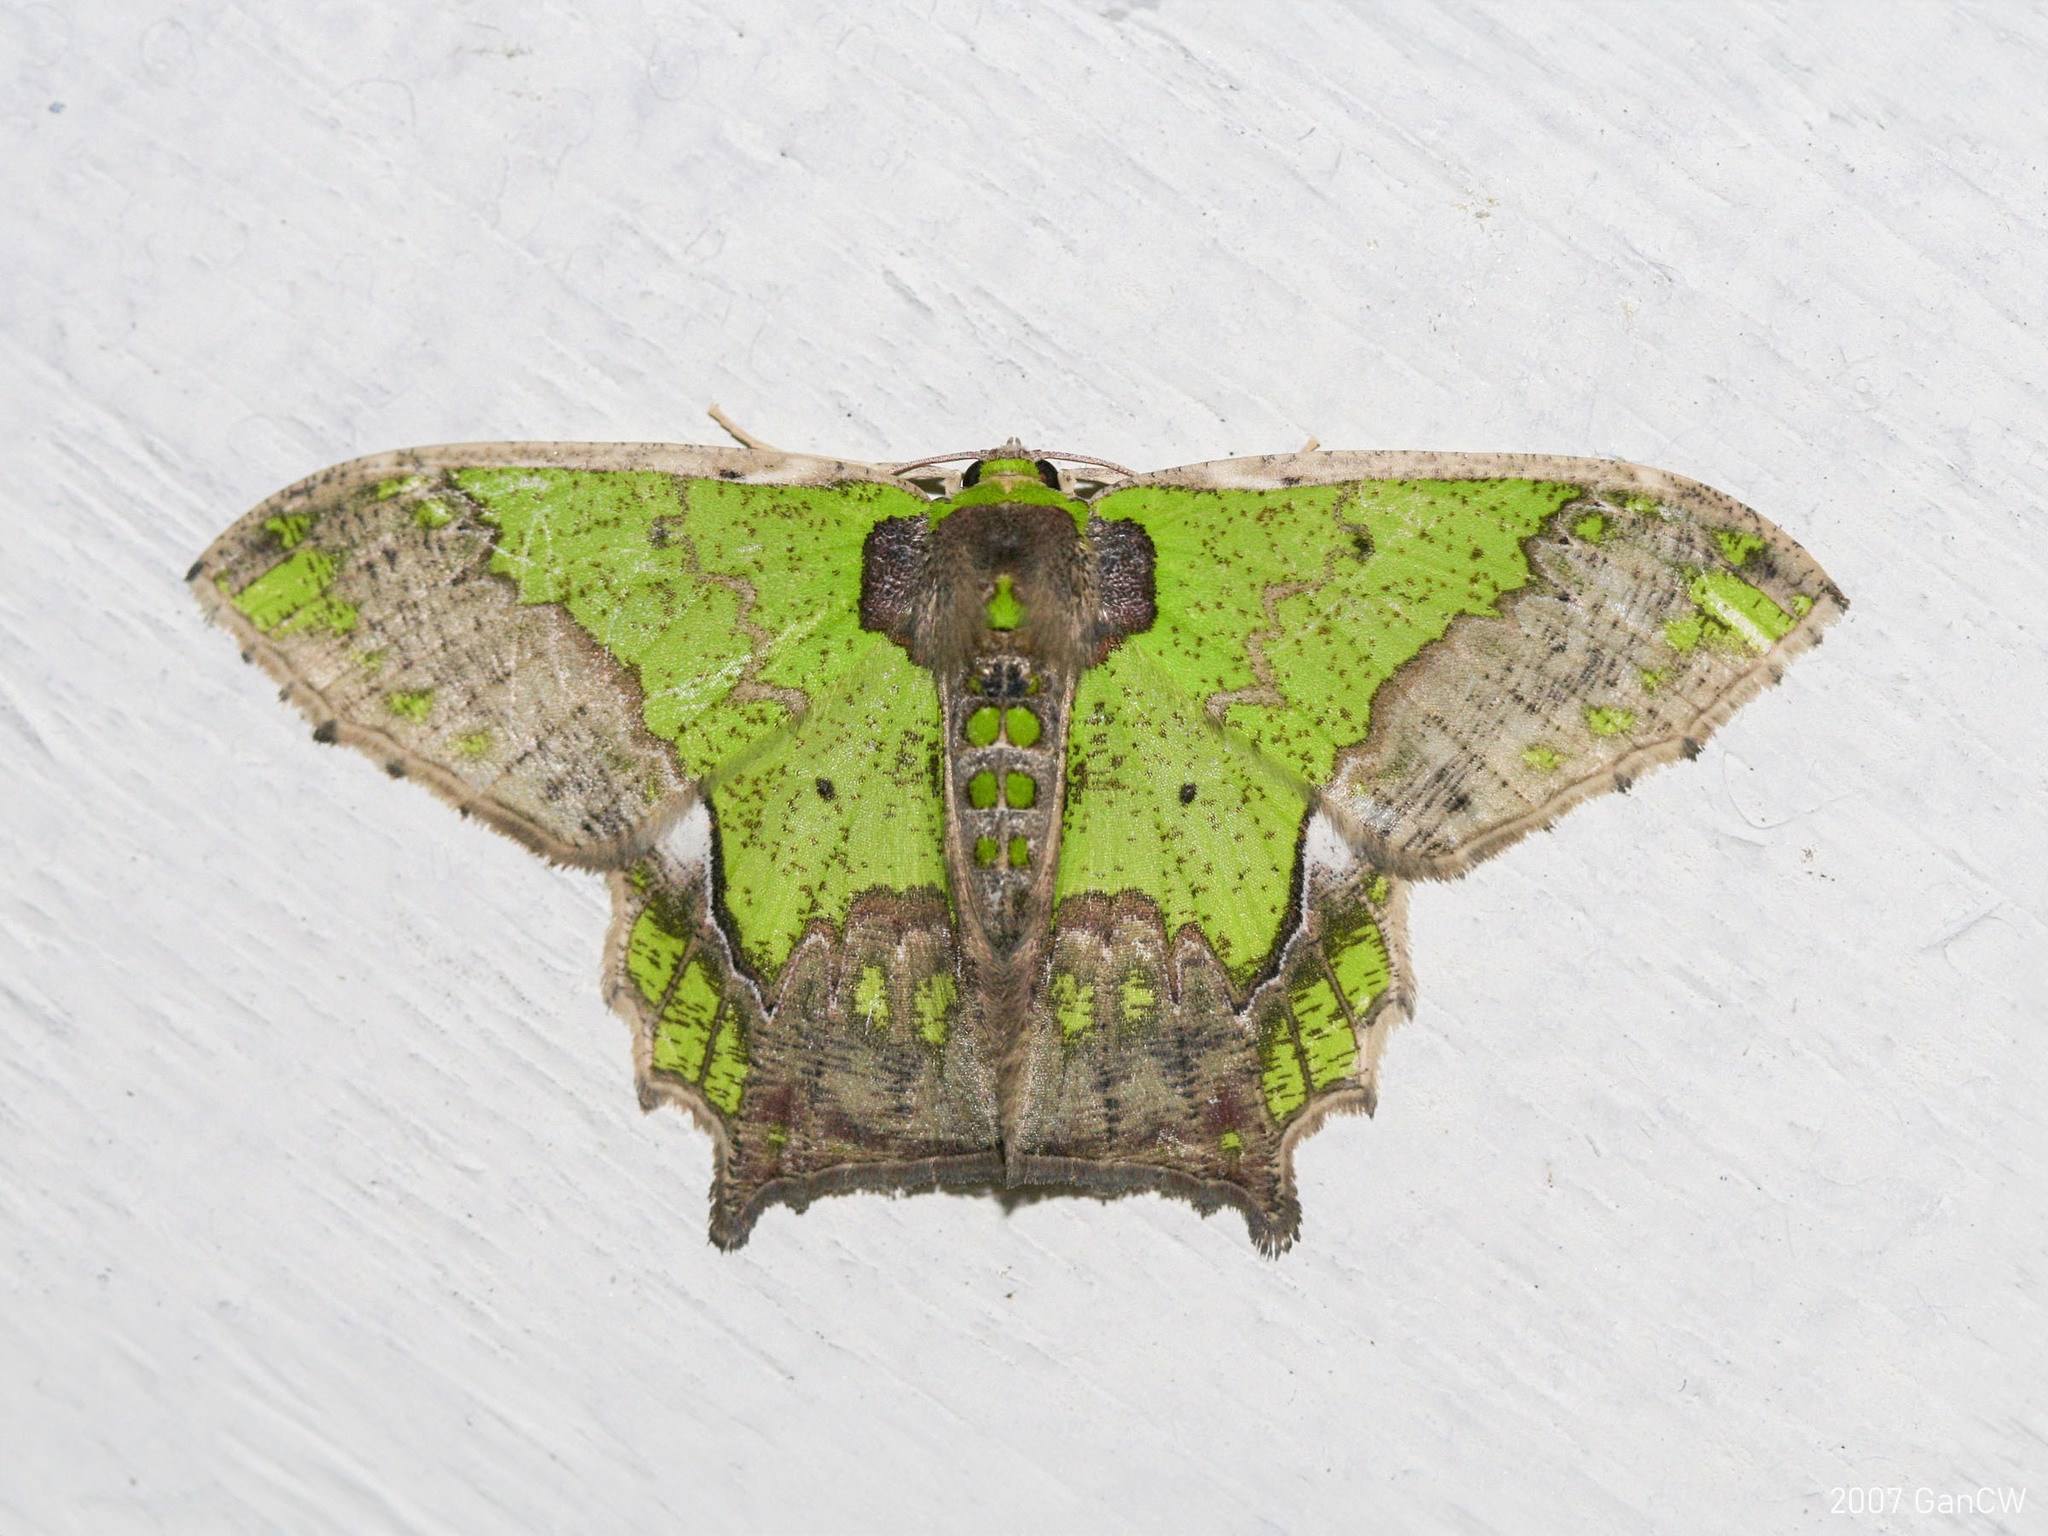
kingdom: Animalia
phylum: Arthropoda
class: Insecta
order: Lepidoptera
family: Geometridae
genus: Agathia
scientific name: Agathia codina
